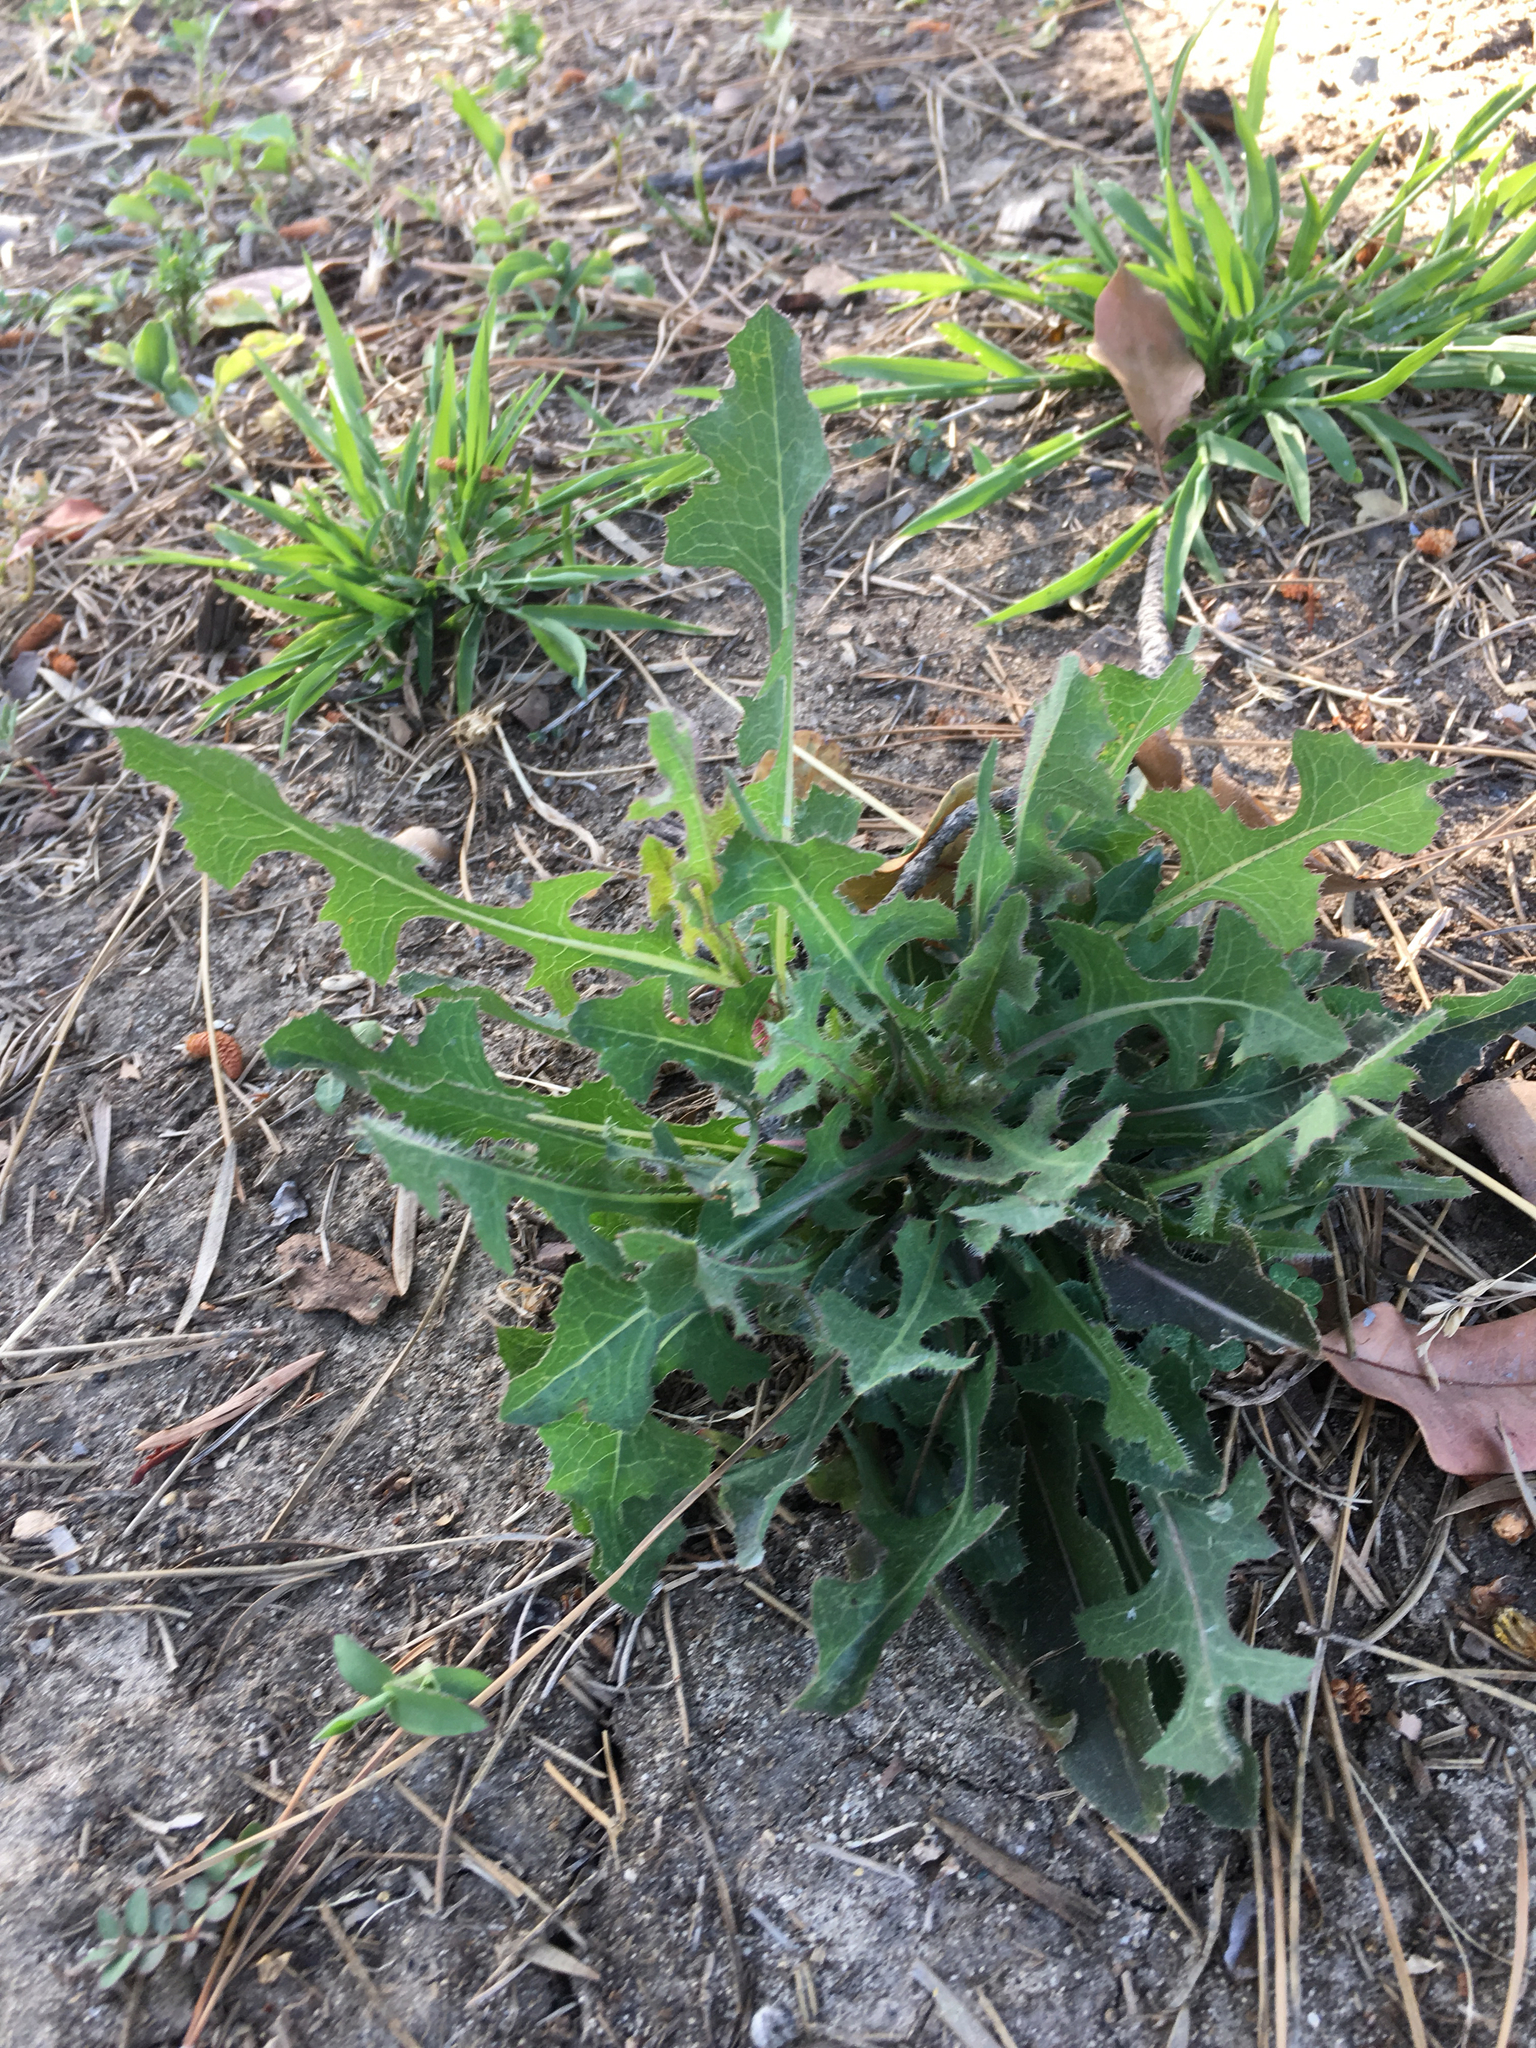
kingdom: Plantae
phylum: Tracheophyta
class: Magnoliopsida
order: Asterales
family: Asteraceae
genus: Lactuca
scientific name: Lactuca serriola
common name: Prickly lettuce
